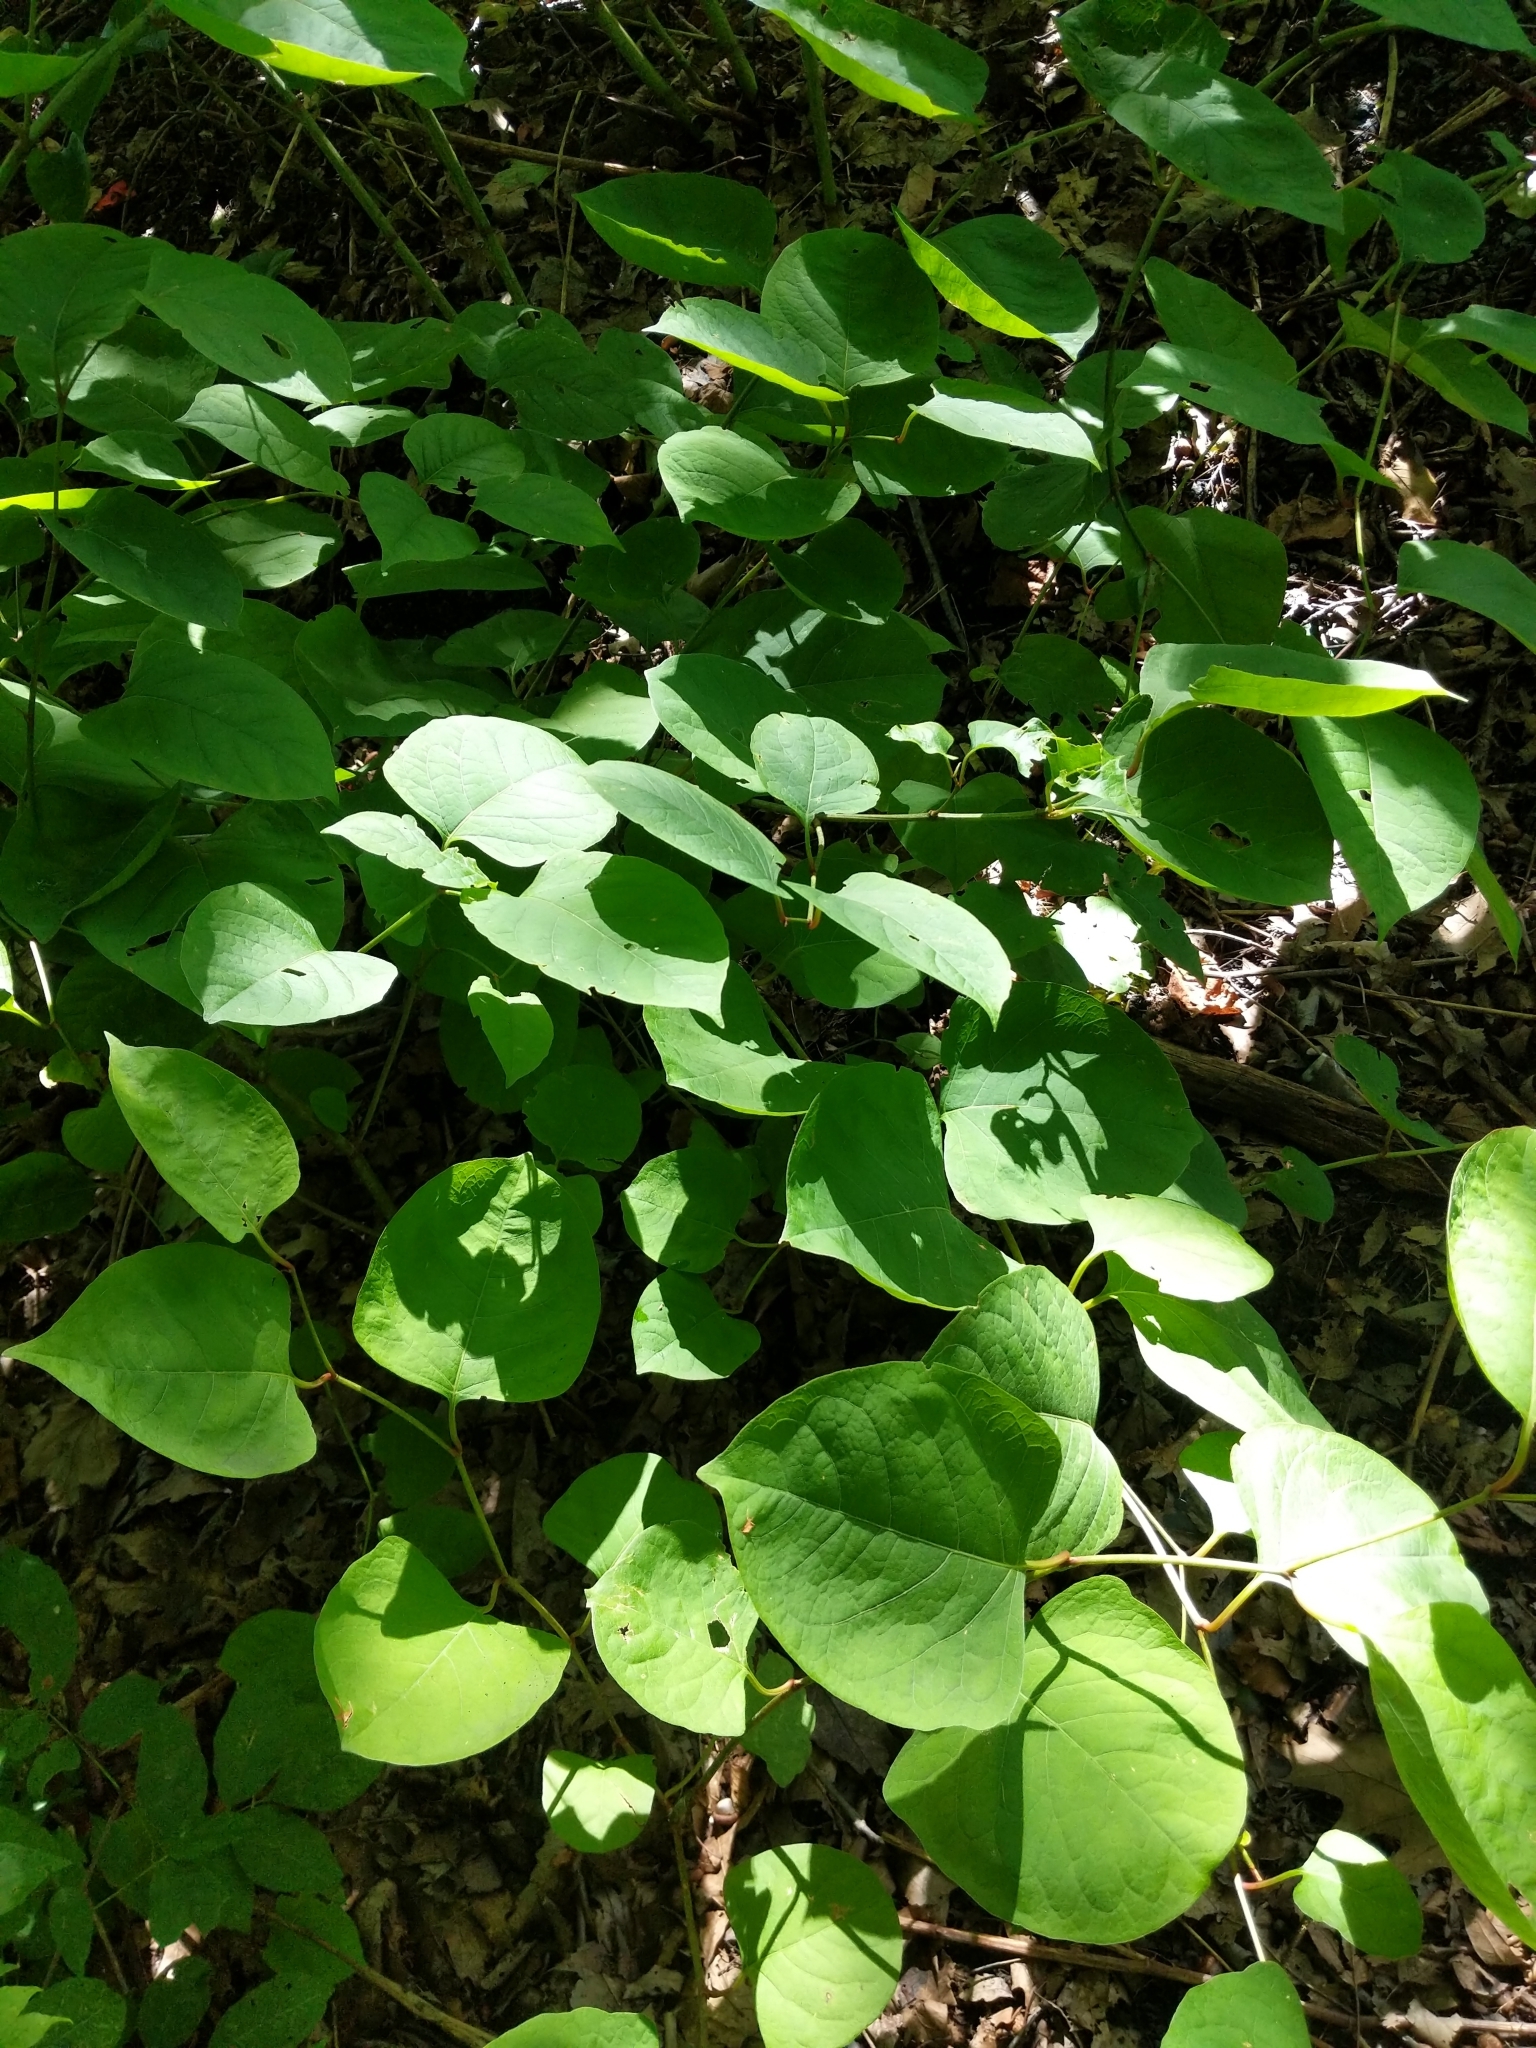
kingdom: Plantae
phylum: Tracheophyta
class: Magnoliopsida
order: Caryophyllales
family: Polygonaceae
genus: Reynoutria
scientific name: Reynoutria japonica
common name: Japanese knotweed
